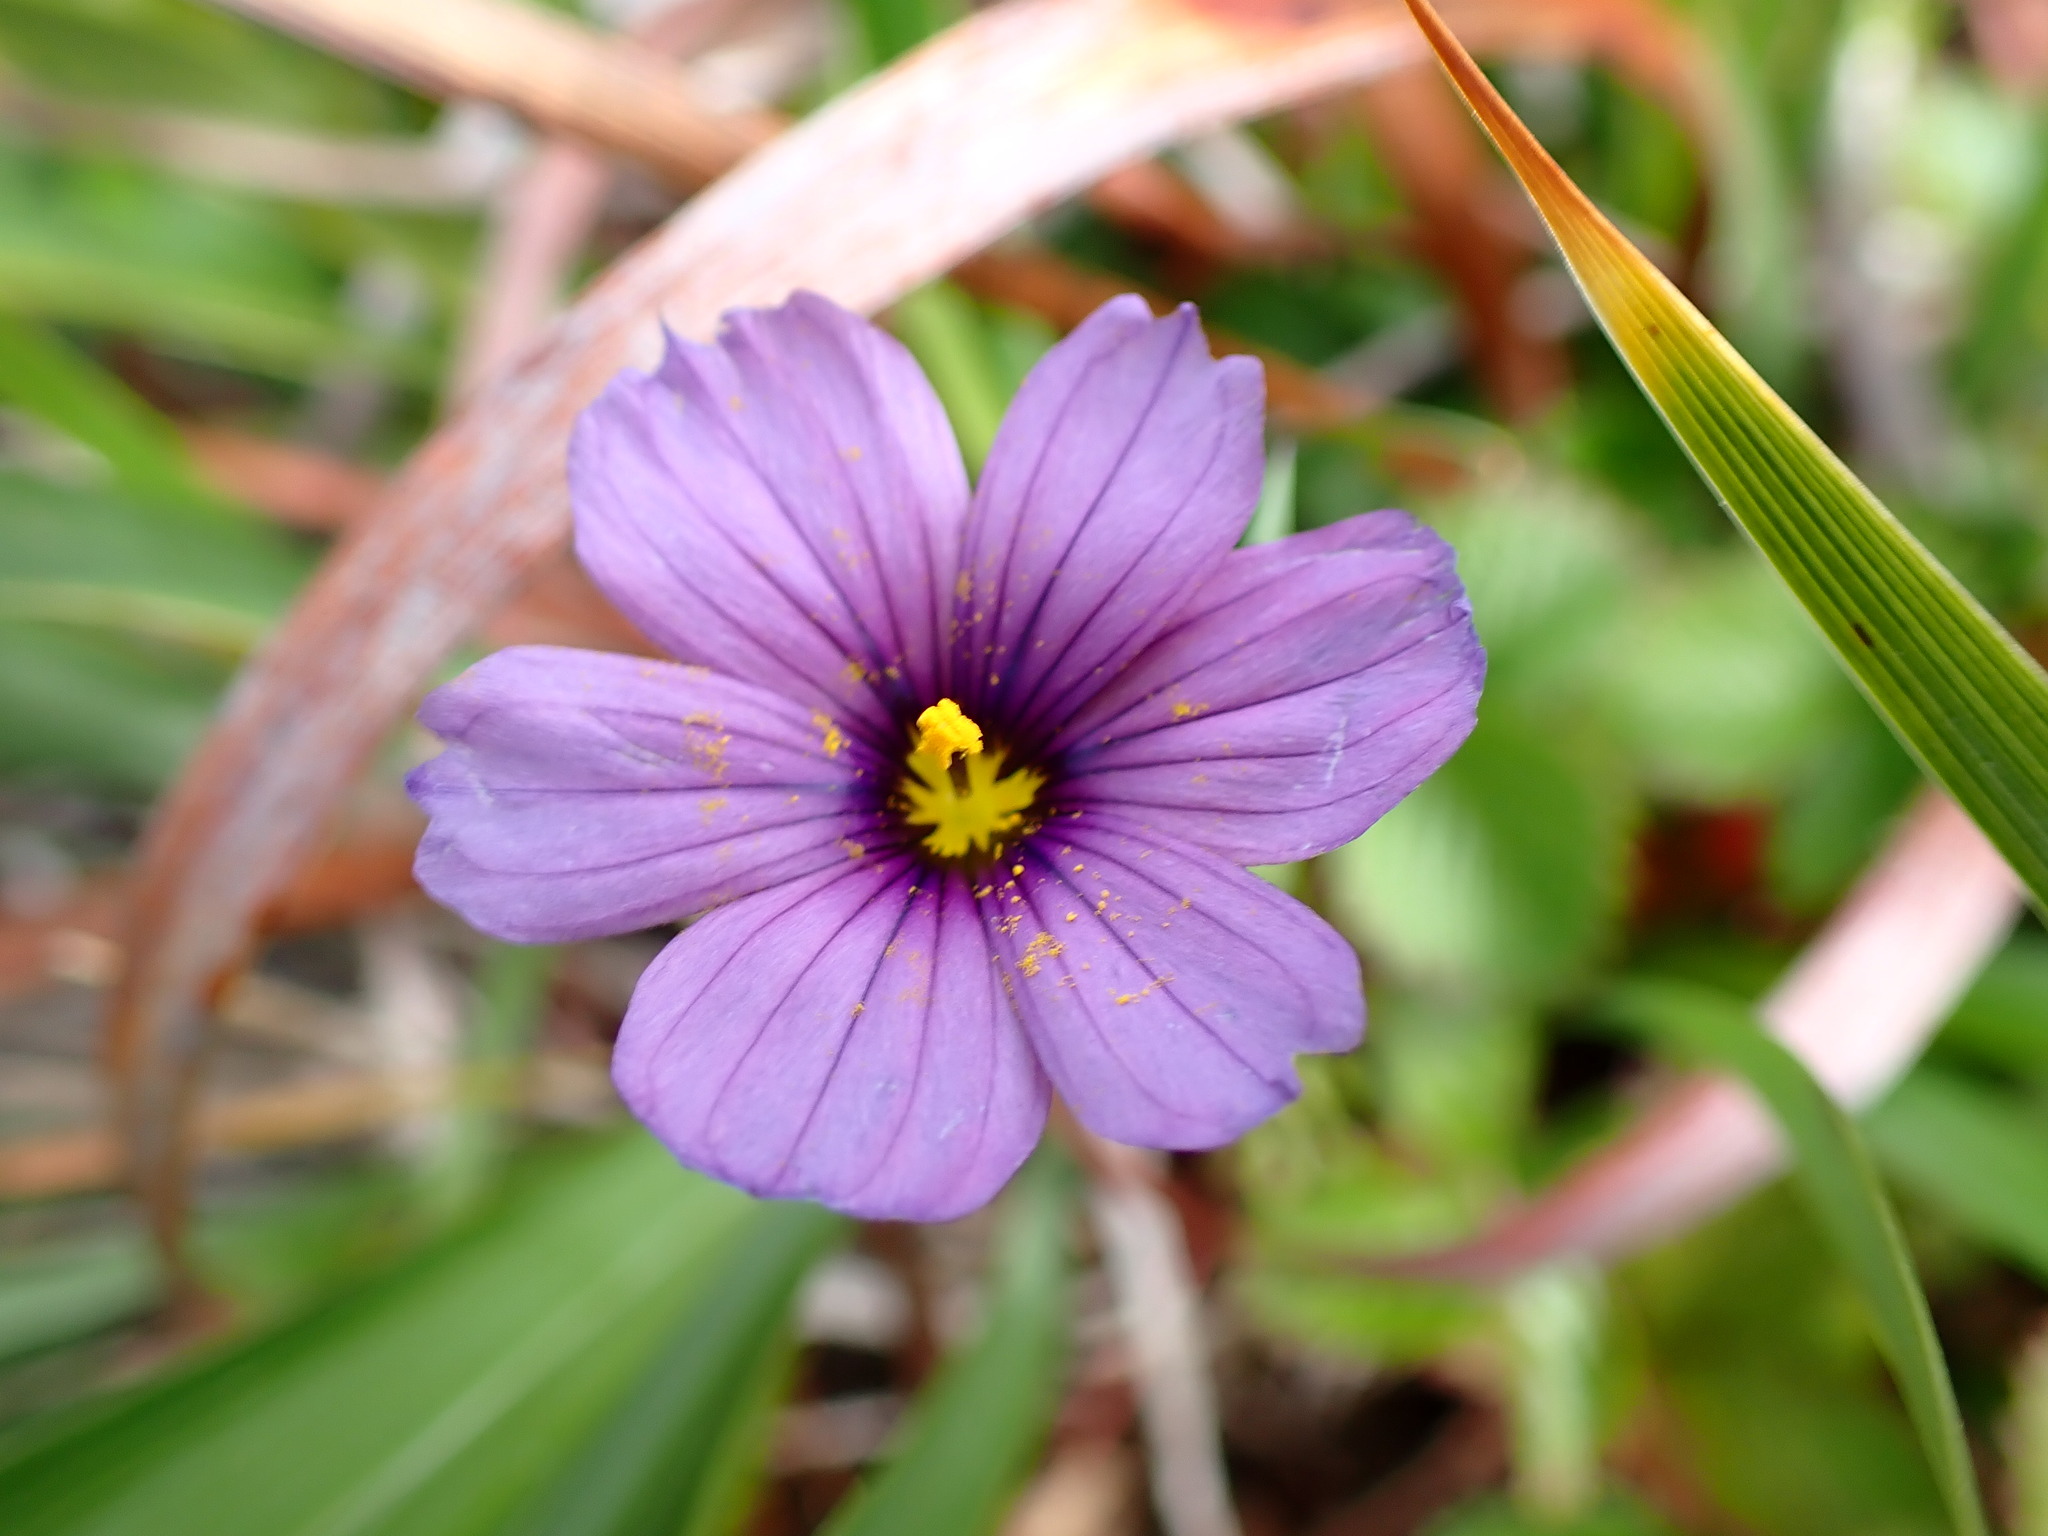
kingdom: Plantae
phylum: Tracheophyta
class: Liliopsida
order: Asparagales
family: Iridaceae
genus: Sisyrinchium
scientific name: Sisyrinchium bellum
